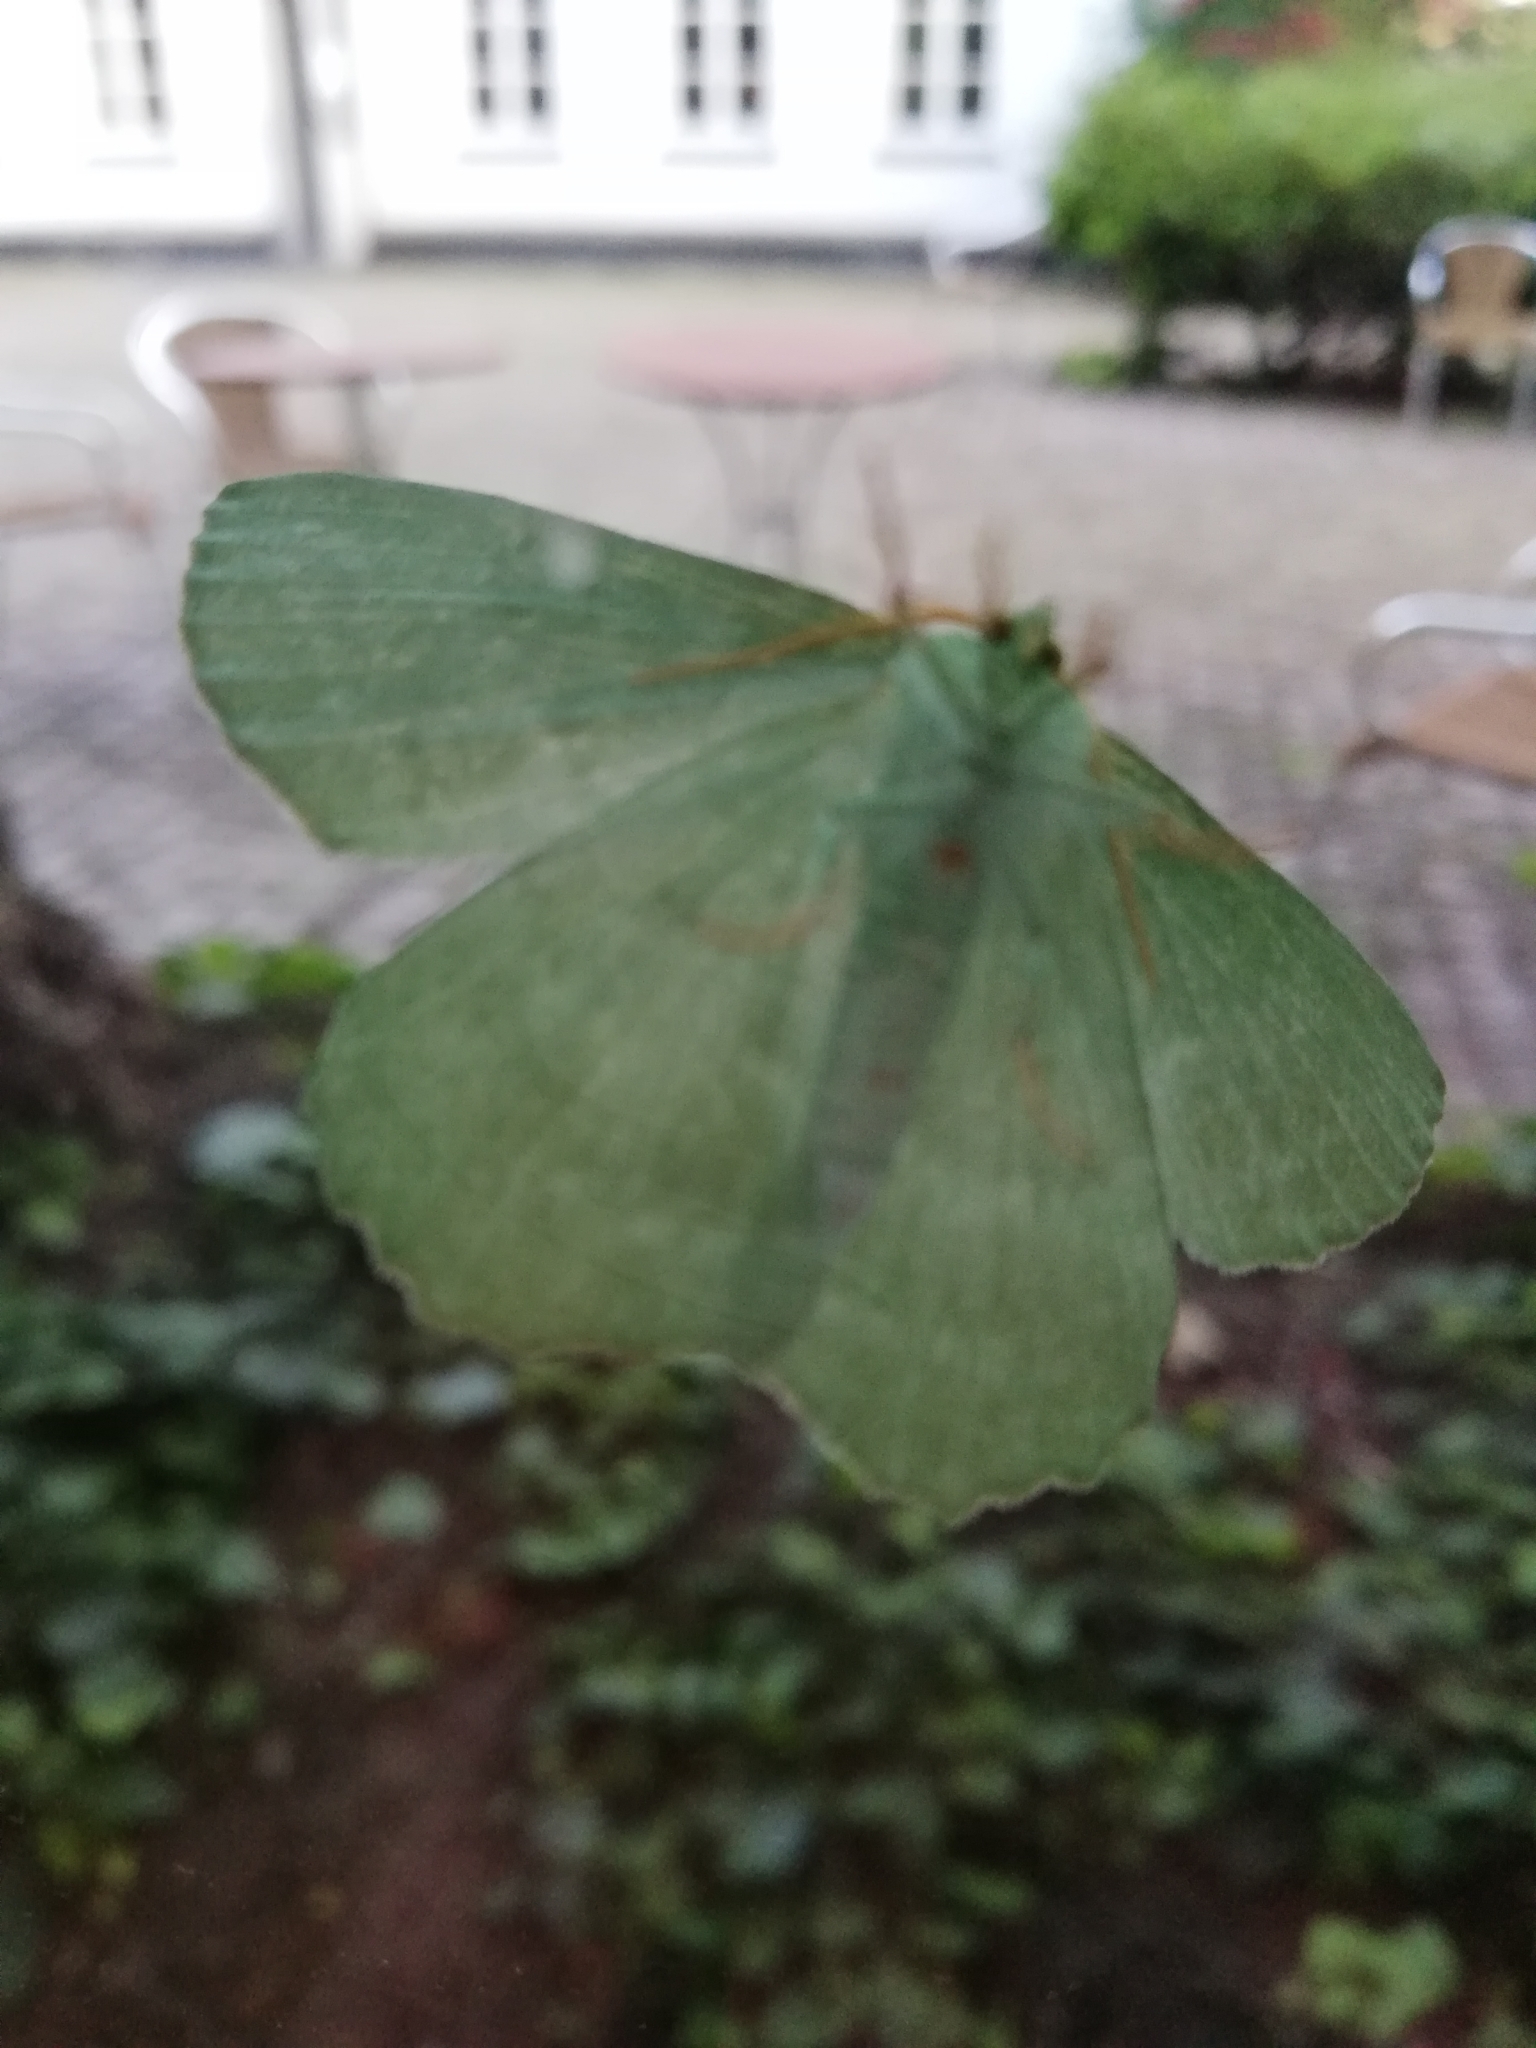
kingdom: Animalia
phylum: Arthropoda
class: Insecta
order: Lepidoptera
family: Geometridae
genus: Geometra
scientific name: Geometra papilionaria
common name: Large emerald
